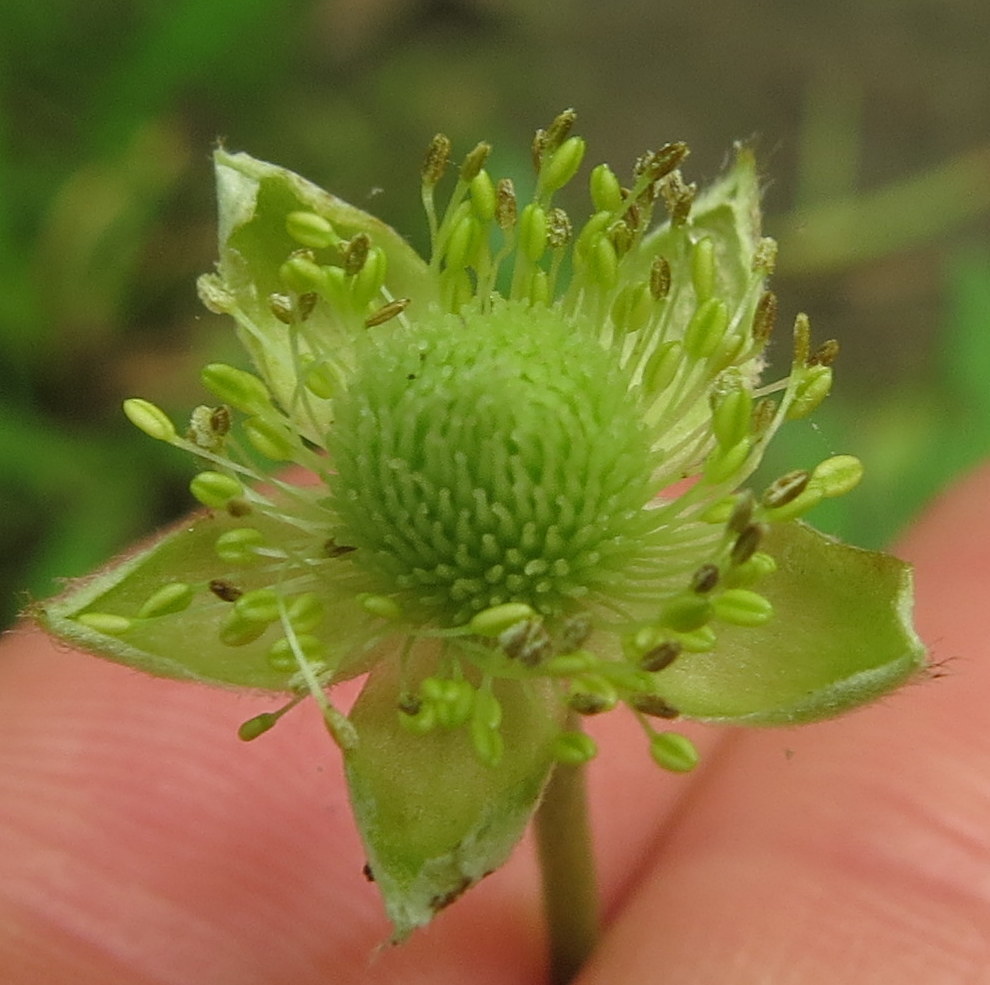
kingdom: Plantae
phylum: Tracheophyta
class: Magnoliopsida
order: Ranunculales
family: Ranunculaceae
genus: Anemone
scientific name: Anemone virginiana
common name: Tall anemone
